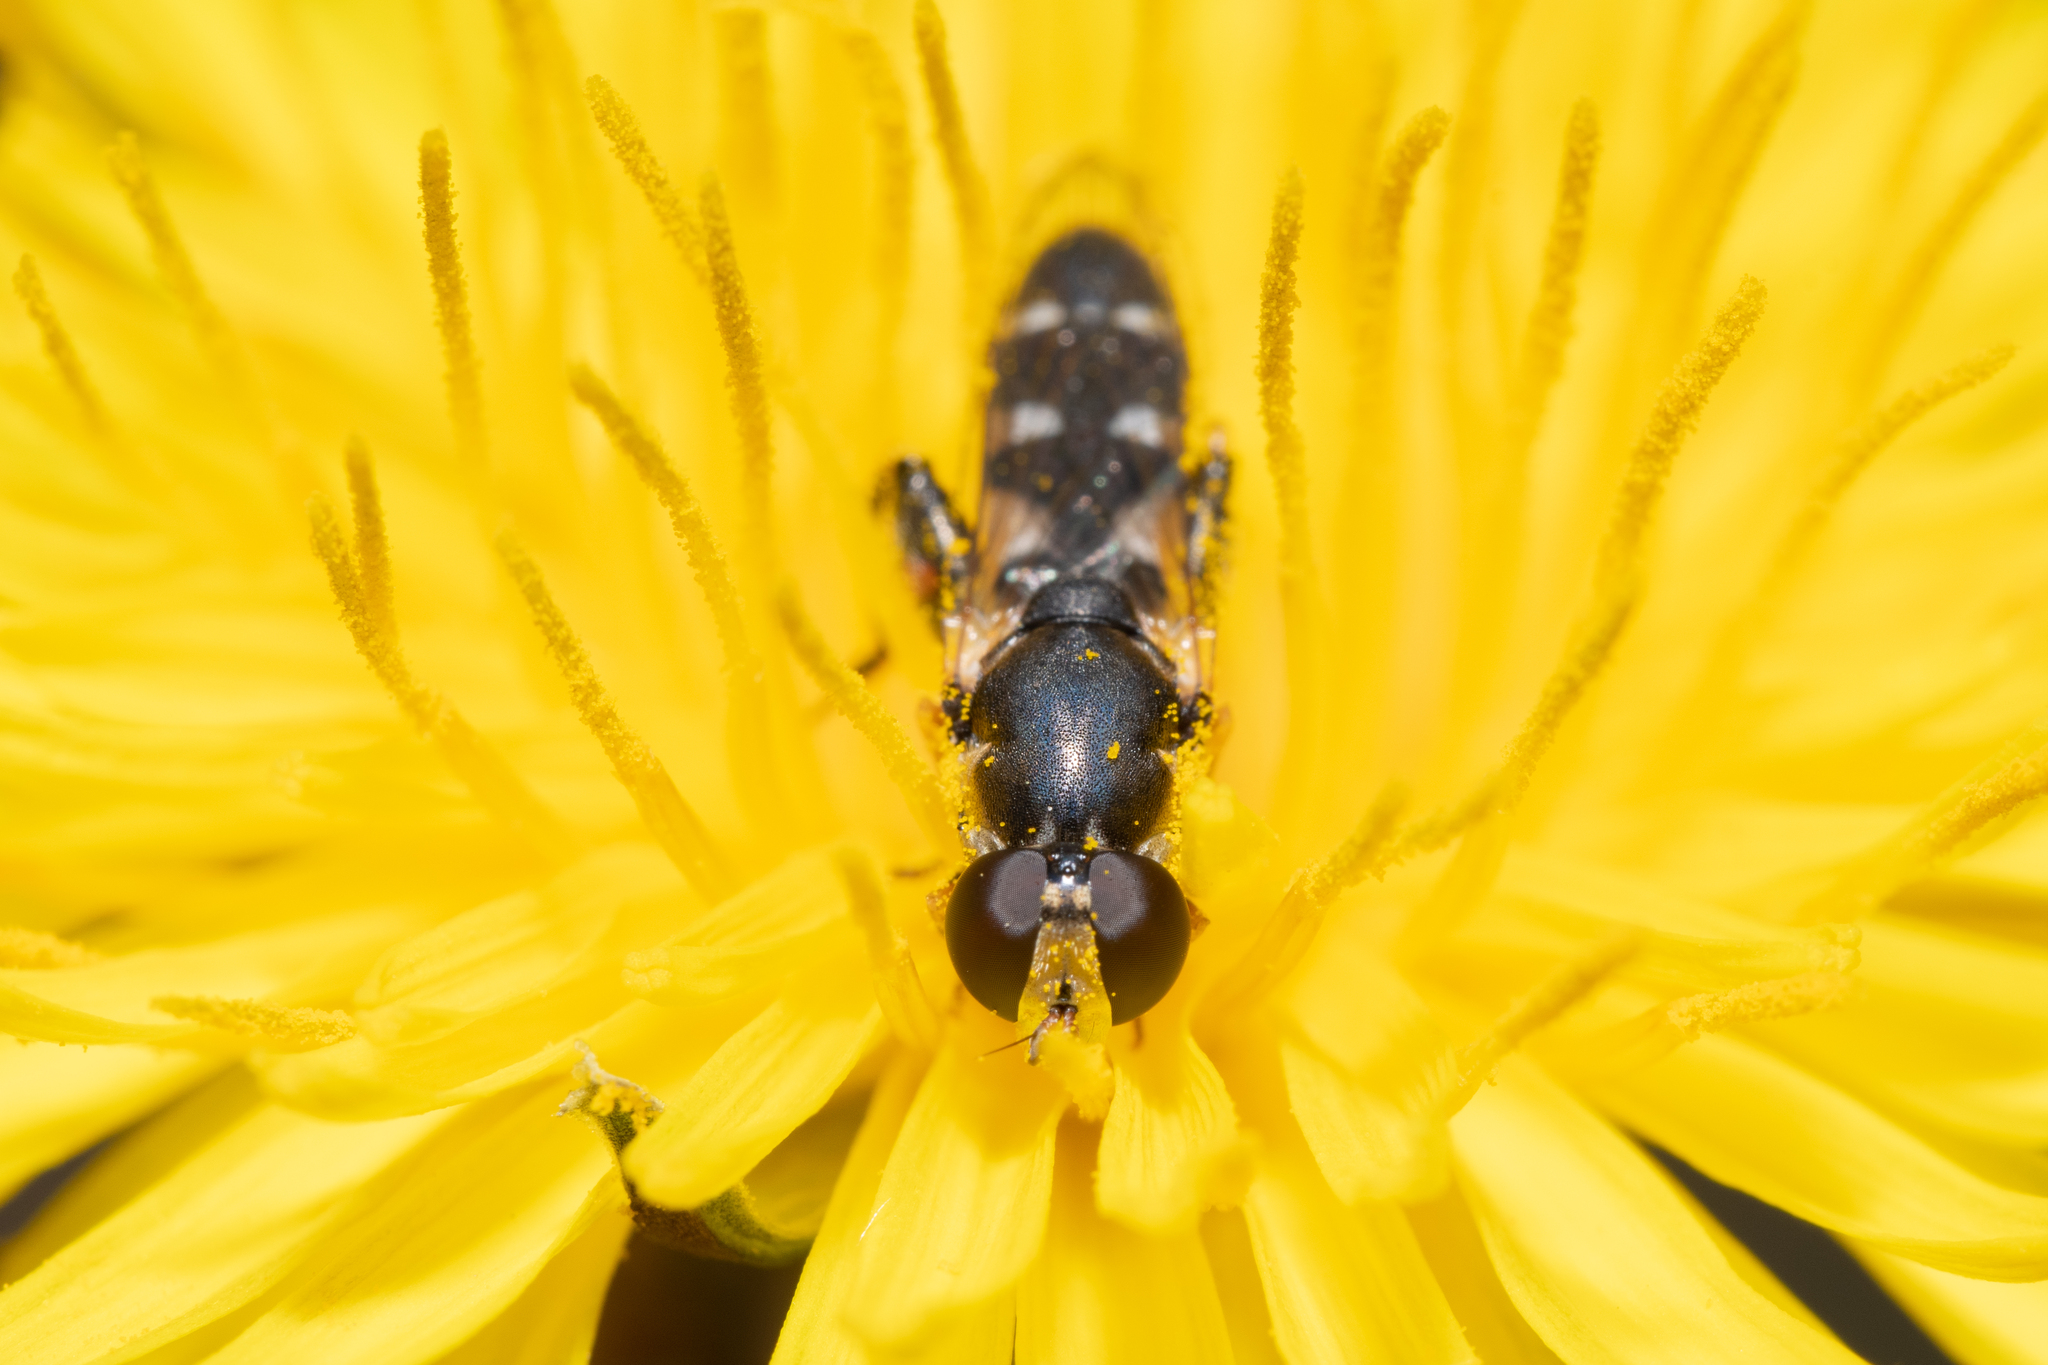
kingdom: Animalia
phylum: Arthropoda
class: Insecta
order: Diptera
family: Syrphidae
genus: Syritta
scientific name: Syritta pipiens
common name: Hover fly
